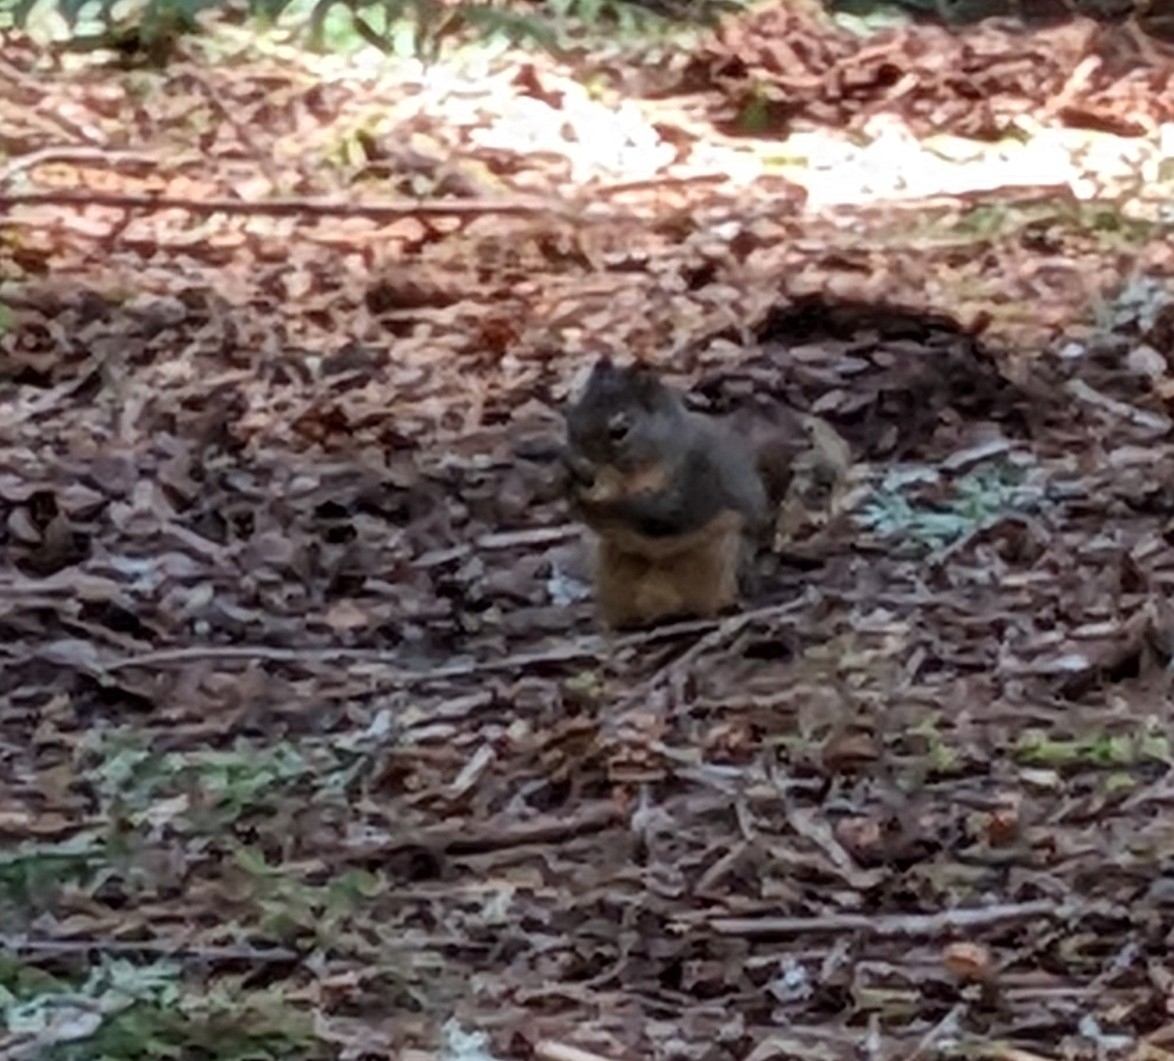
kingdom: Animalia
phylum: Chordata
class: Mammalia
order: Rodentia
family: Sciuridae
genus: Tamiasciurus
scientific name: Tamiasciurus douglasii
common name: Douglas's squirrel
